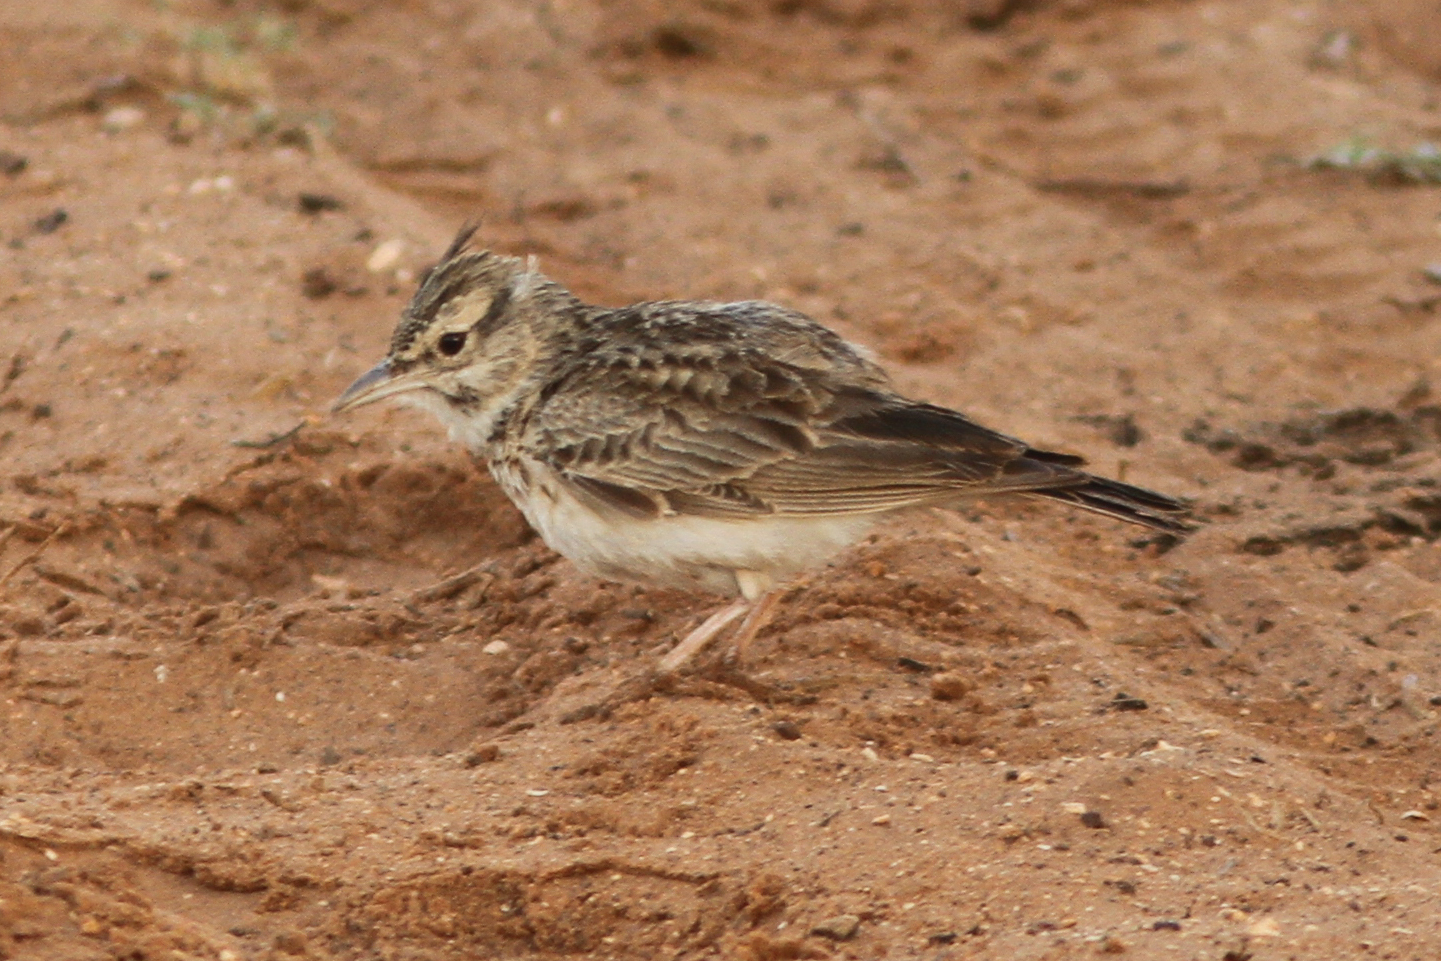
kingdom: Animalia
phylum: Chordata
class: Aves
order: Passeriformes
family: Alaudidae
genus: Galerida
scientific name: Galerida cristata
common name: Crested lark
